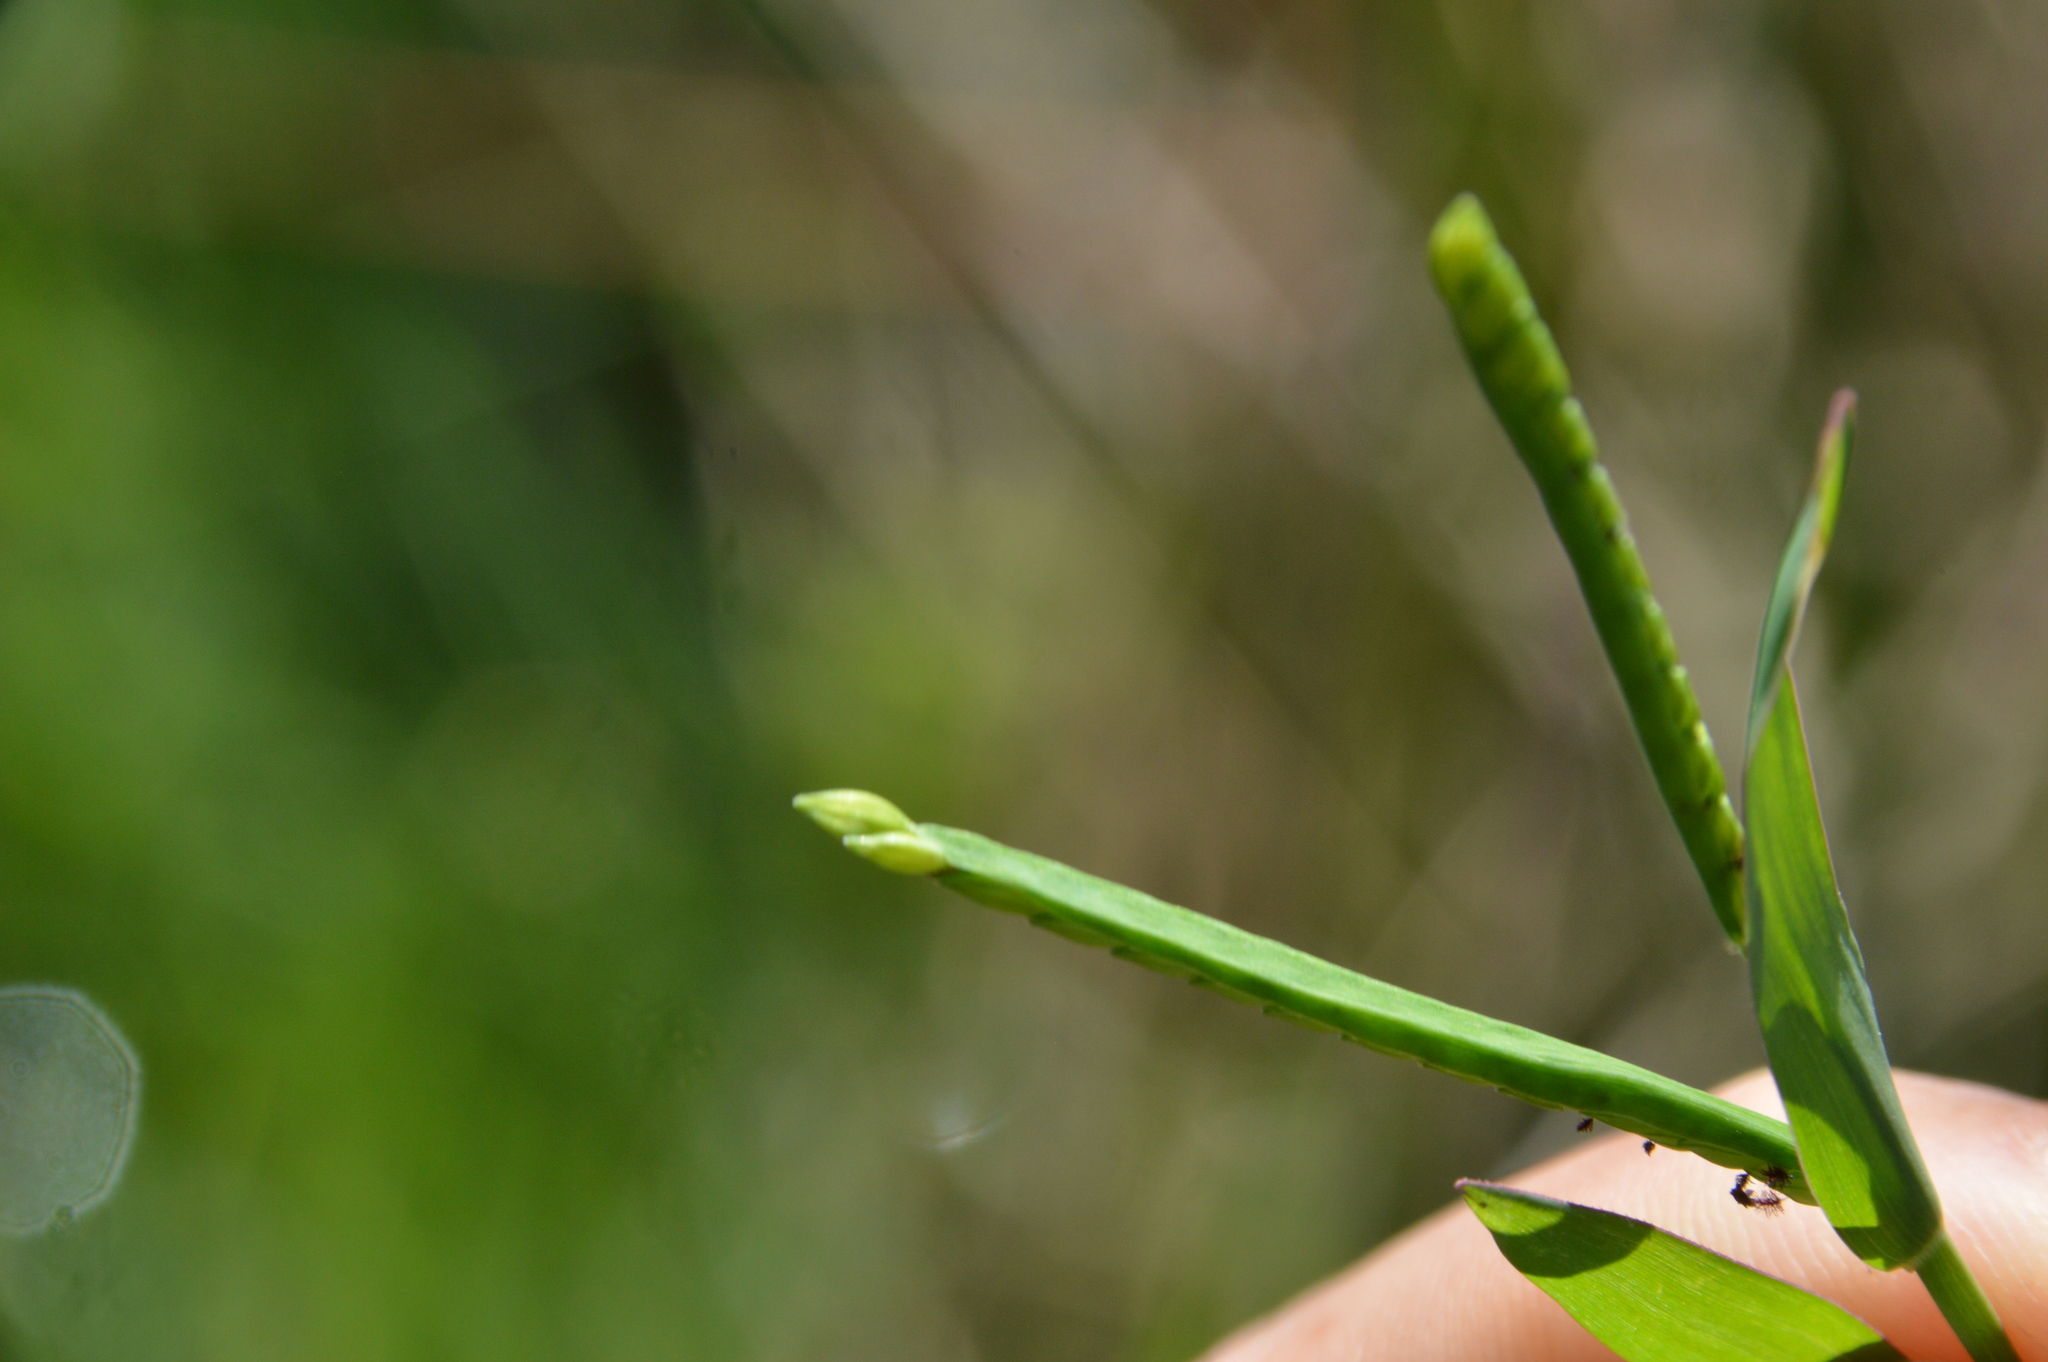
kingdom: Plantae
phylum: Tracheophyta
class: Liliopsida
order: Poales
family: Poaceae
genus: Paspalum
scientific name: Paspalum acuminatum
